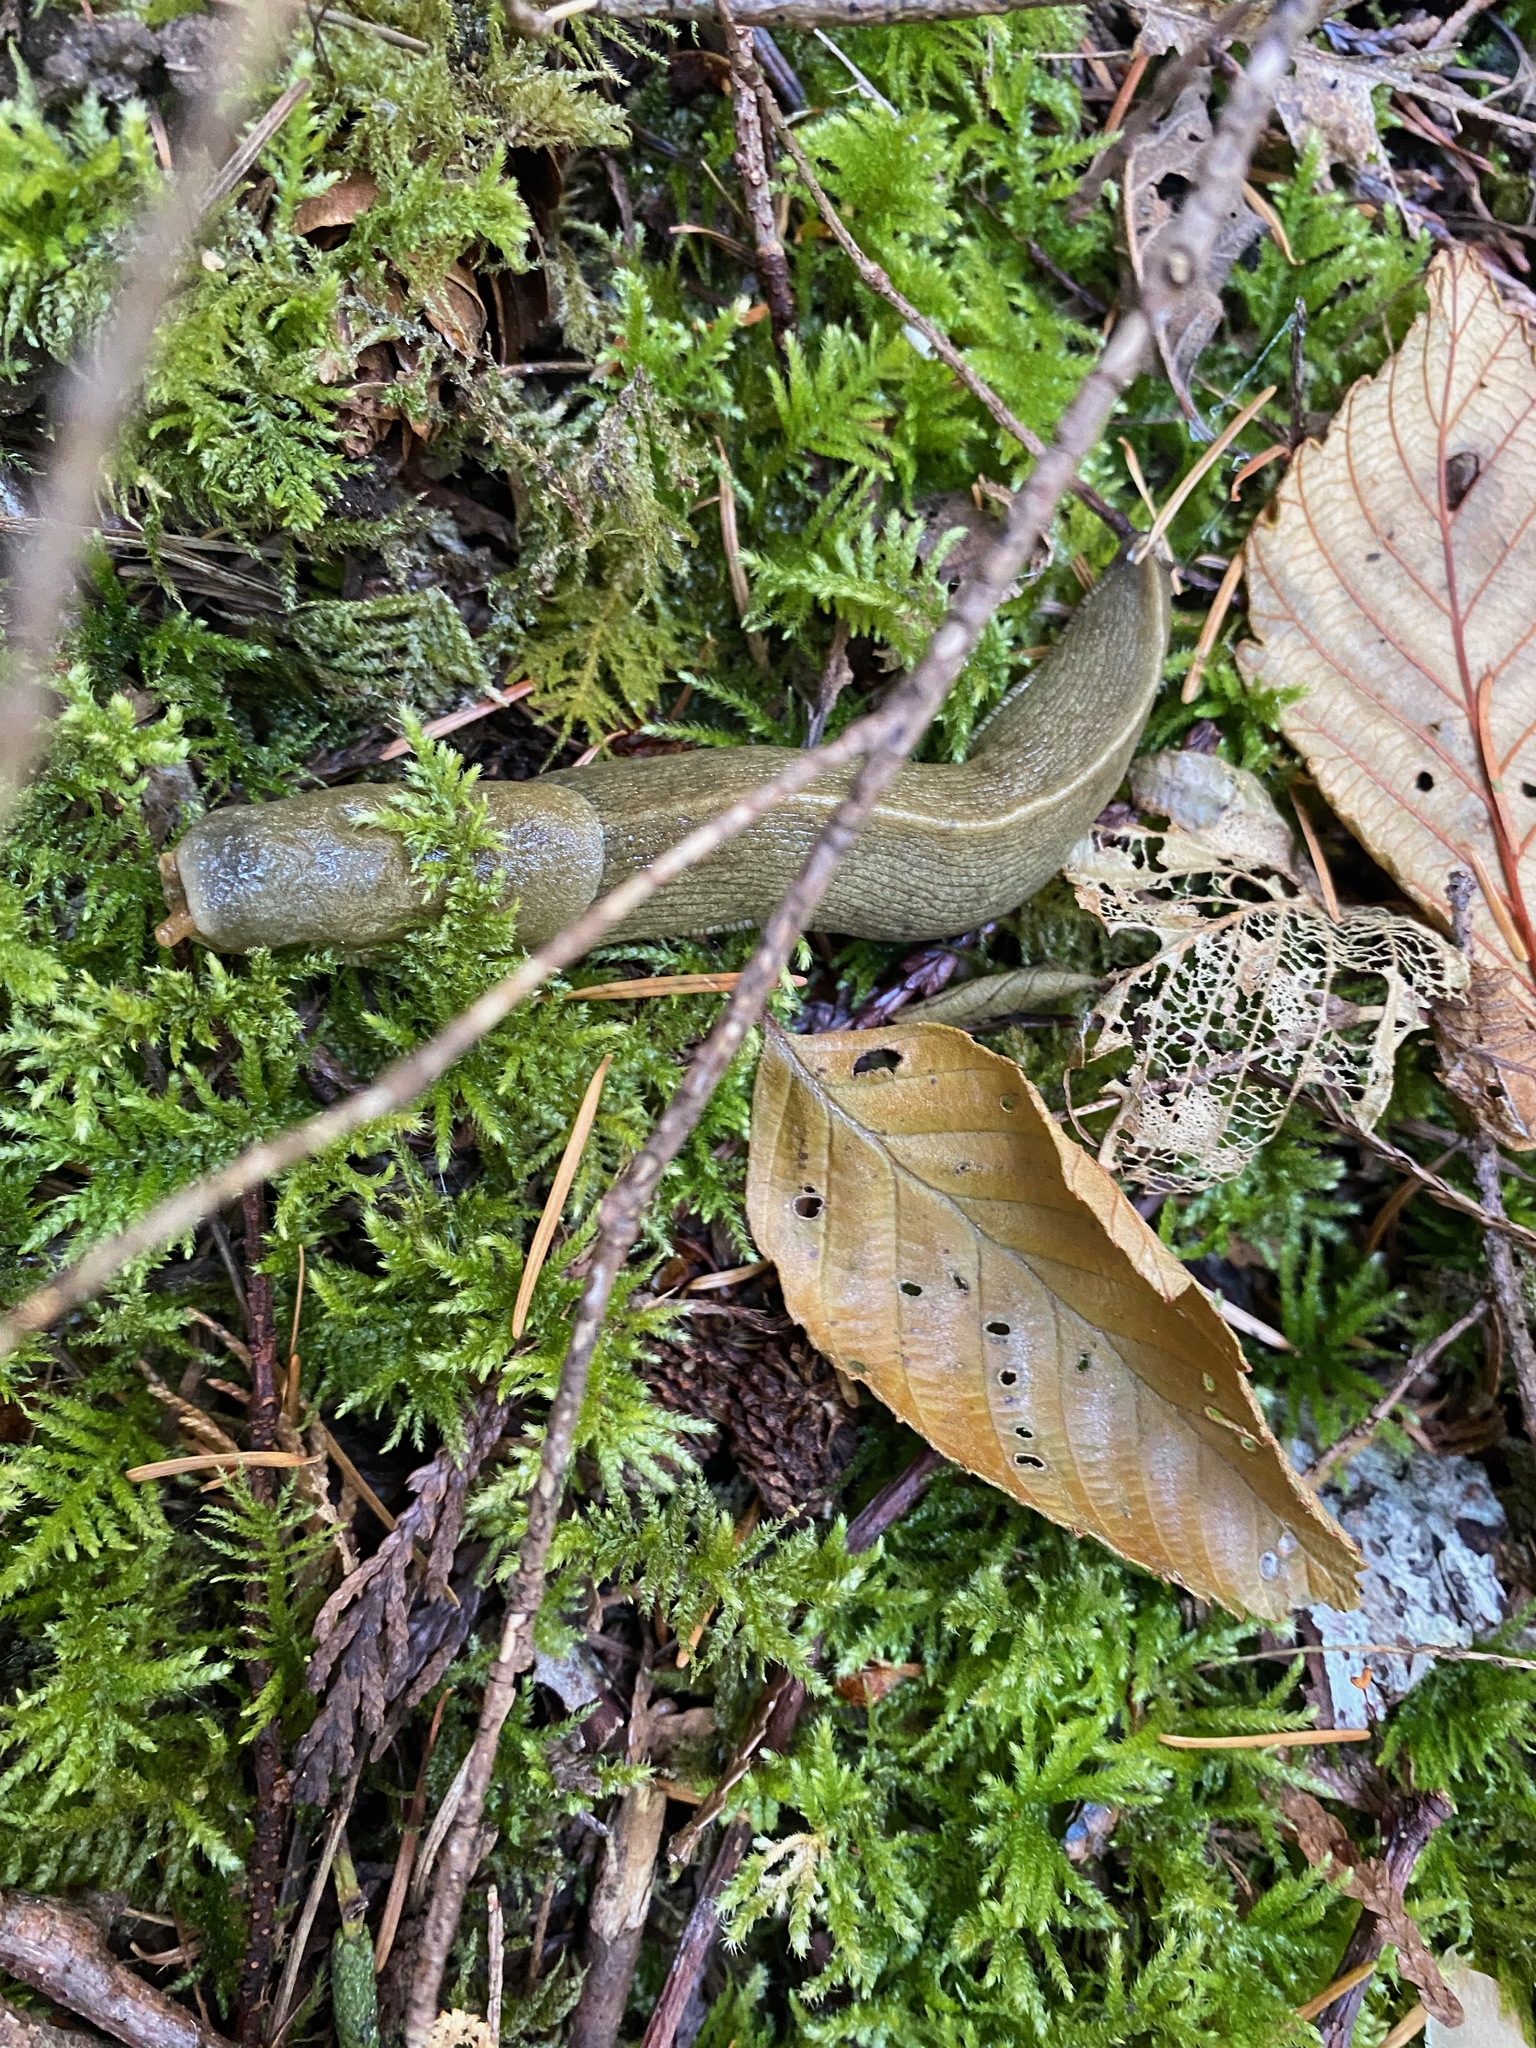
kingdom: Animalia
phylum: Mollusca
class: Gastropoda
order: Stylommatophora
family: Ariolimacidae
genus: Ariolimax
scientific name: Ariolimax columbianus
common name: Pacific banana slug
